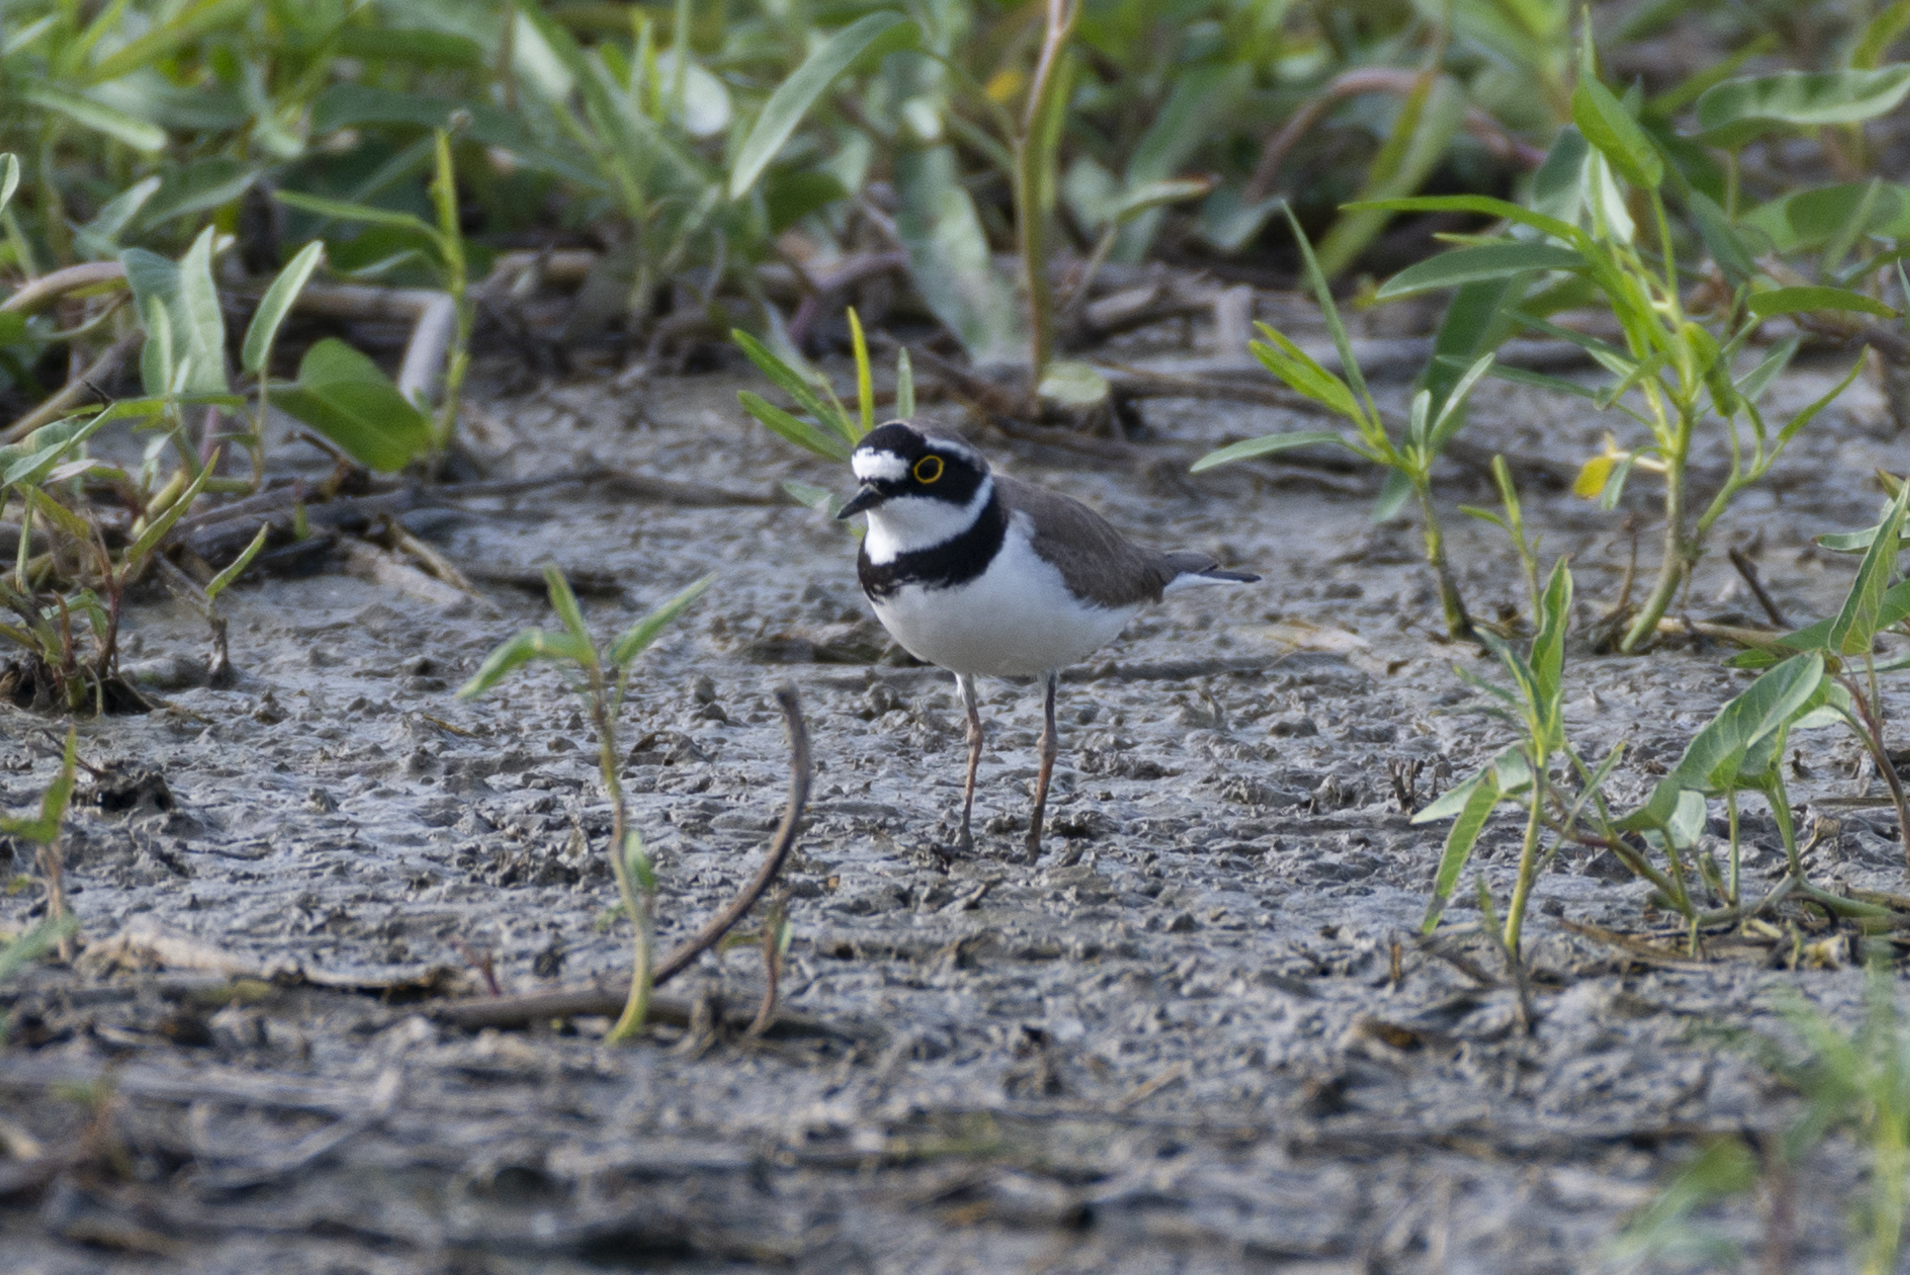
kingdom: Animalia
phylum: Chordata
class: Aves
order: Charadriiformes
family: Charadriidae
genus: Charadrius
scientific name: Charadrius dubius
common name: Little ringed plover
